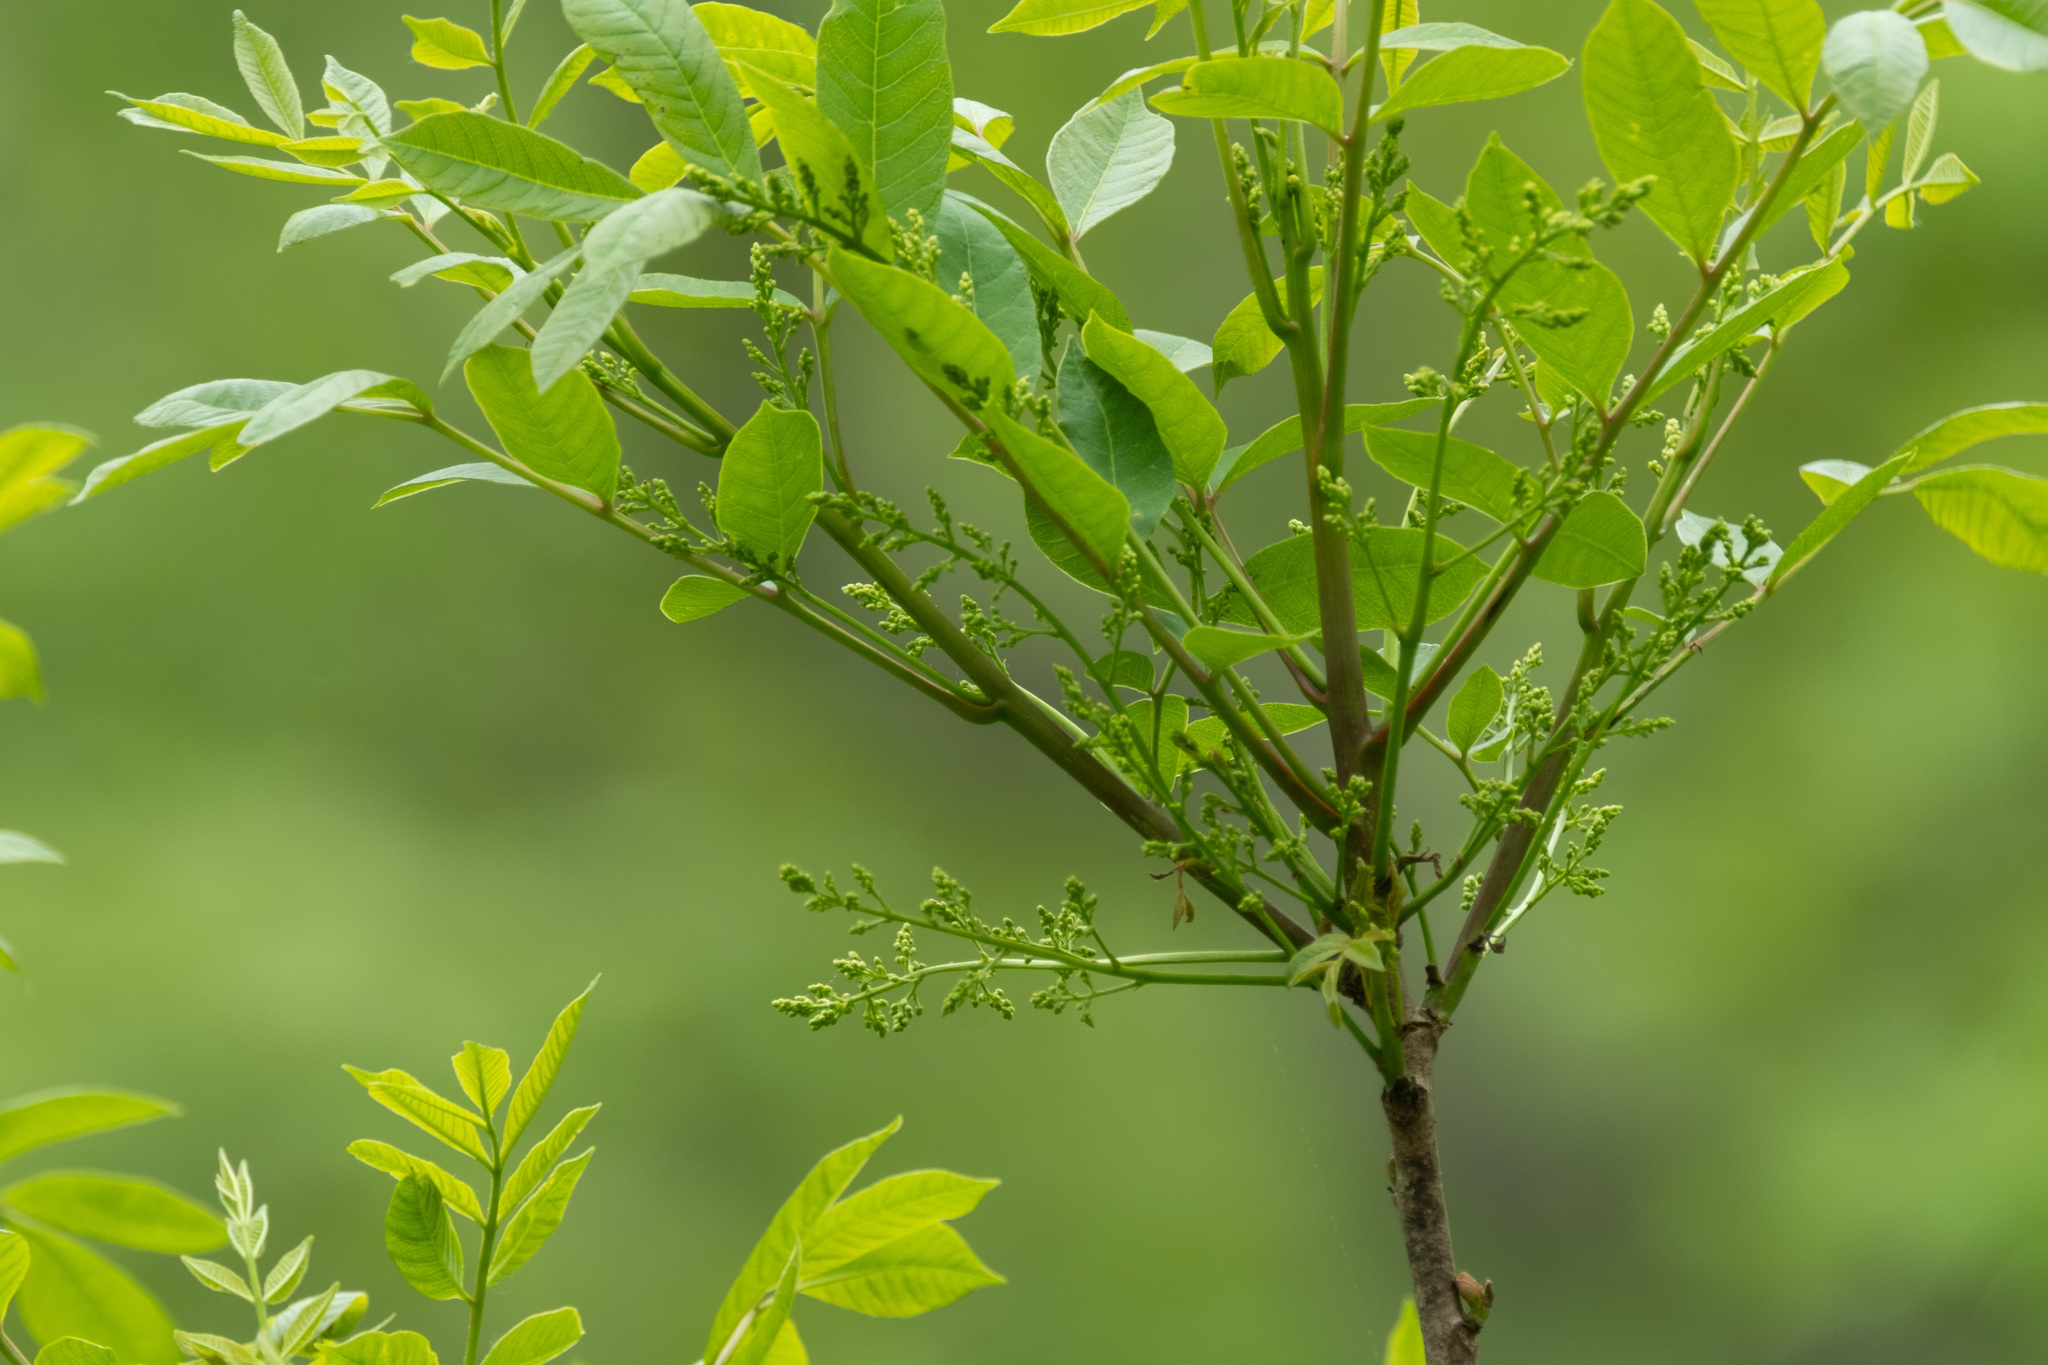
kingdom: Plantae
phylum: Tracheophyta
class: Magnoliopsida
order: Sapindales
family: Anacardiaceae
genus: Toxicodendron
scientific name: Toxicodendron vernix
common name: Poison sumac
